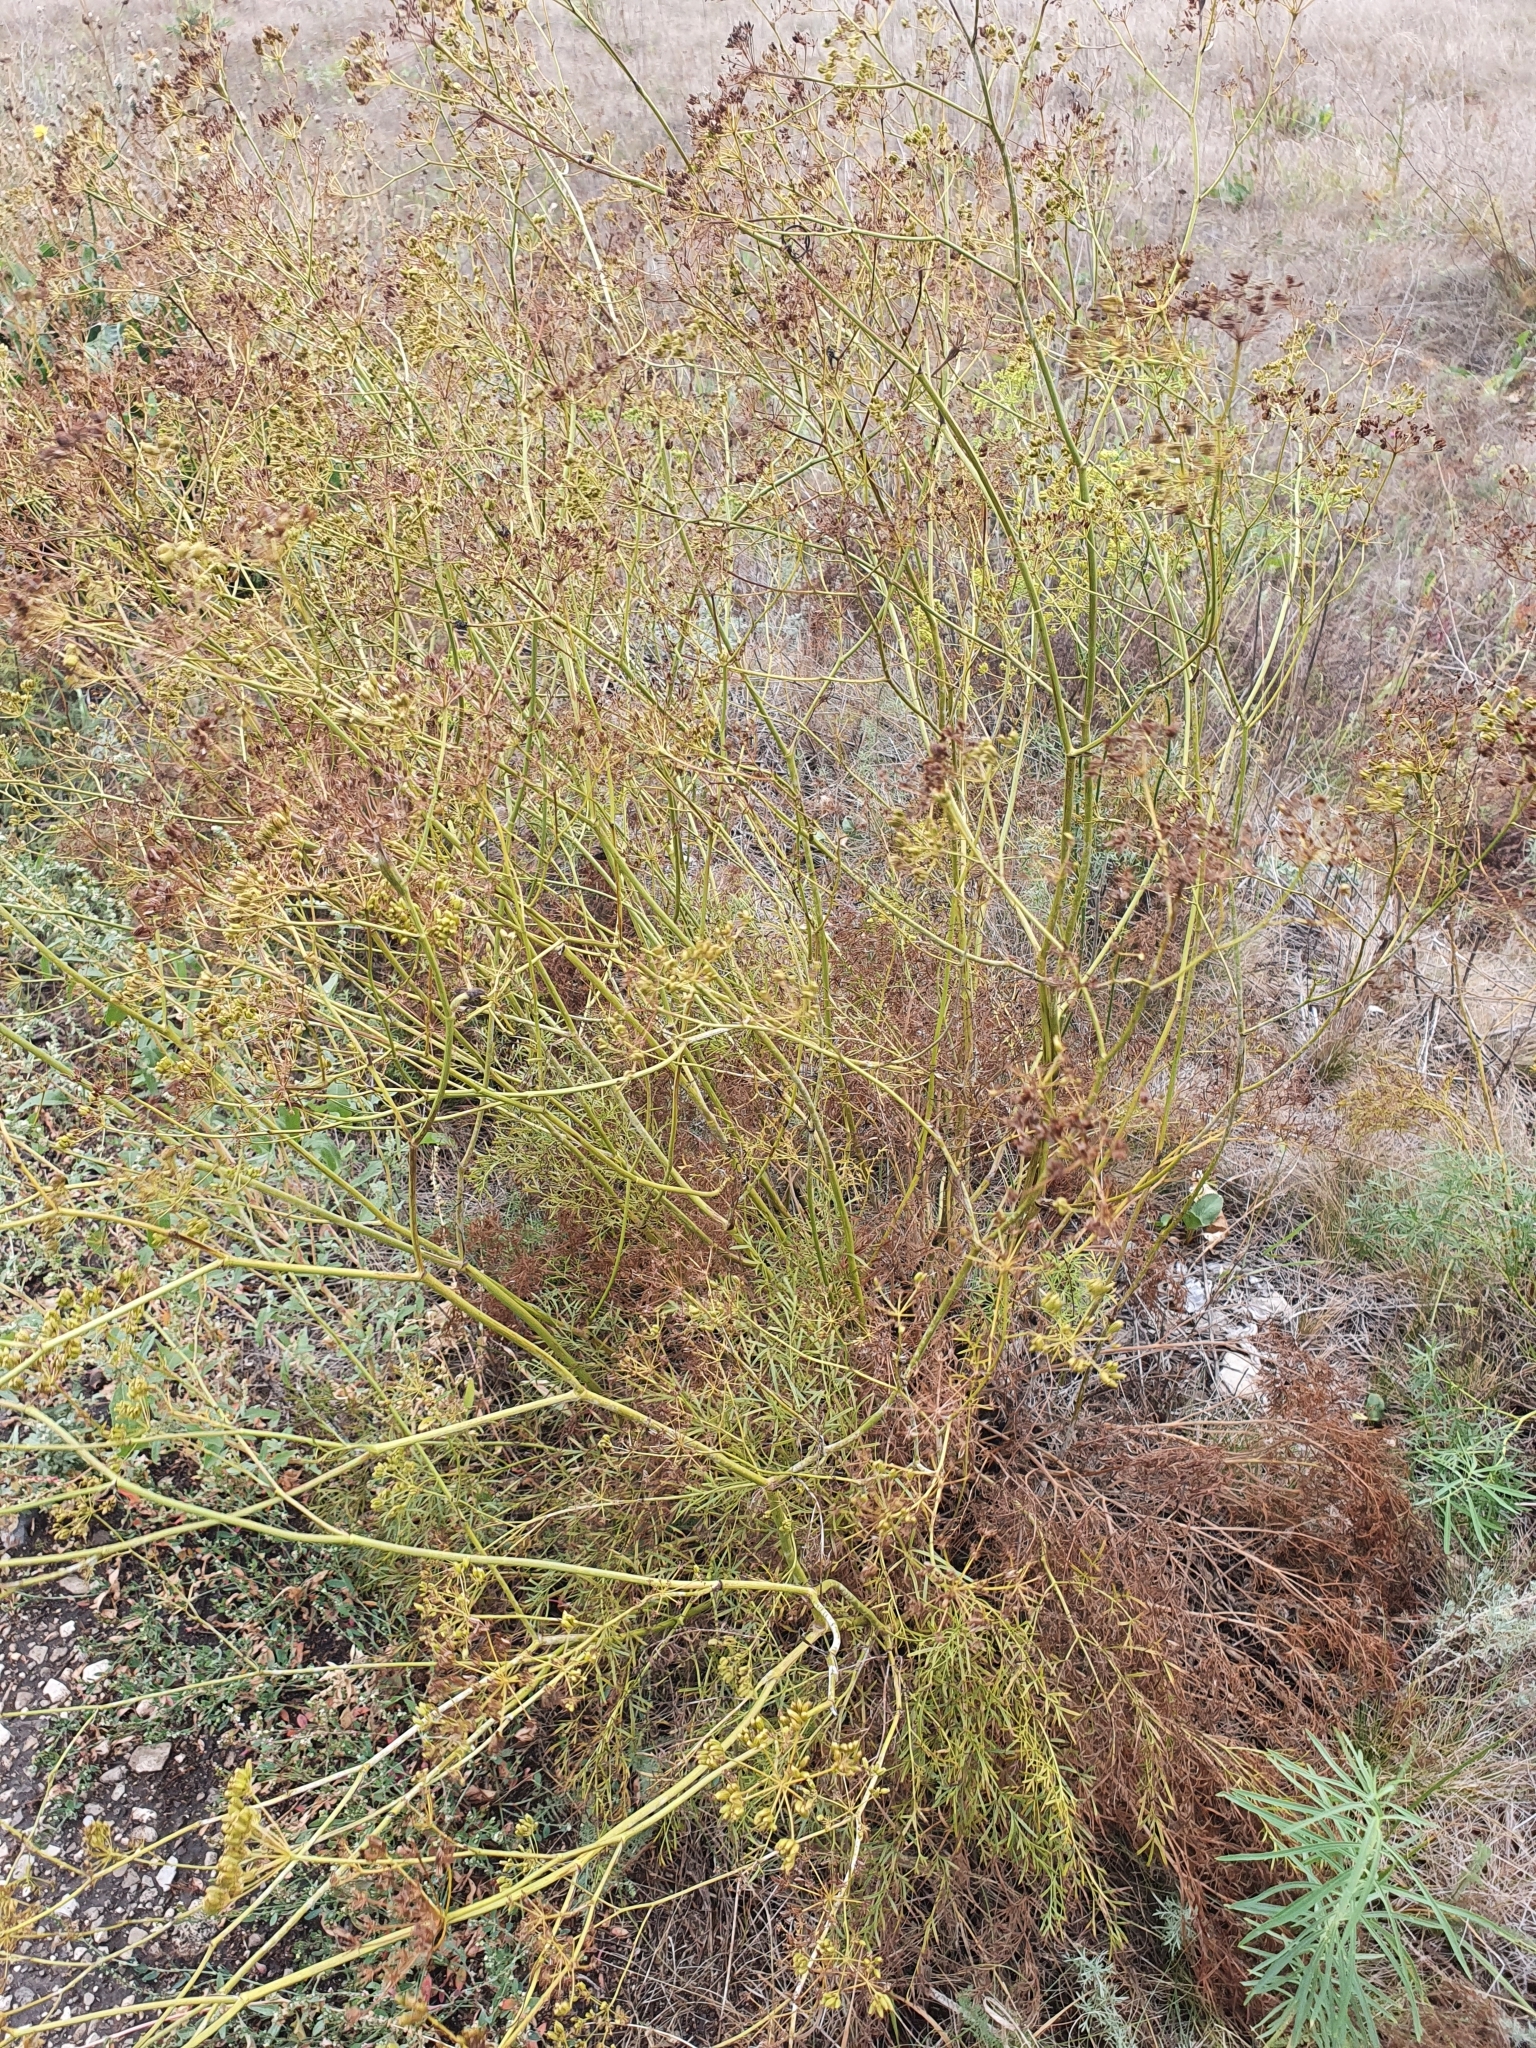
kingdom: Plantae
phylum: Tracheophyta
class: Magnoliopsida
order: Apiales
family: Apiaceae
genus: Silaum
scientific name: Silaum silaus
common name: Pepper-saxifrage
